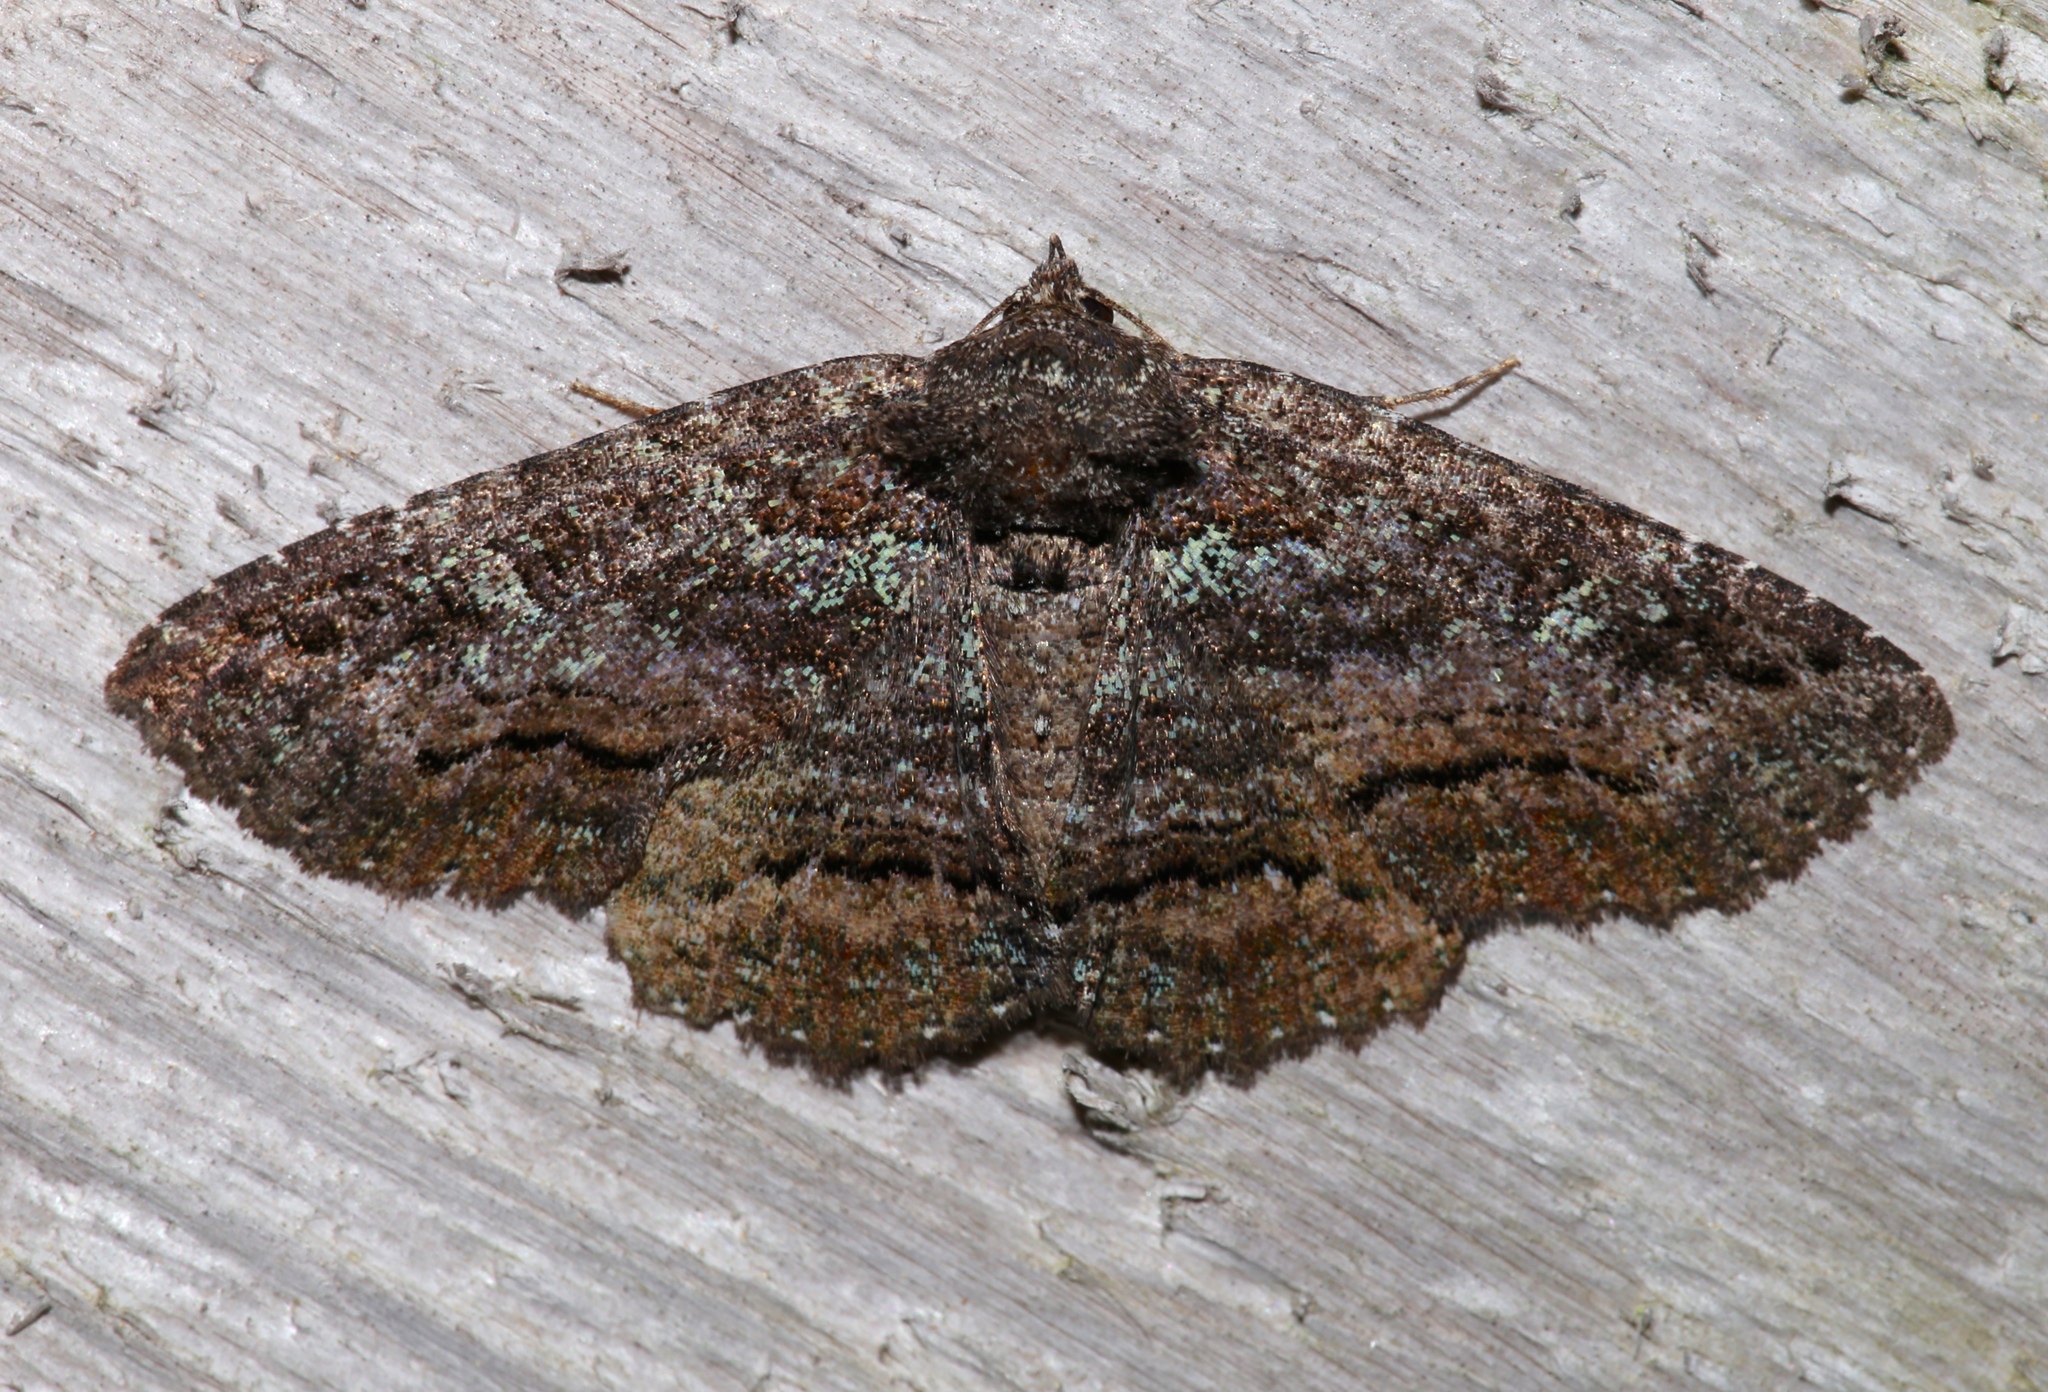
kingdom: Animalia
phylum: Arthropoda
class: Insecta
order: Lepidoptera
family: Erebidae
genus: Zale
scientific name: Zale aeruginosa
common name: Green-dusted zale moth
